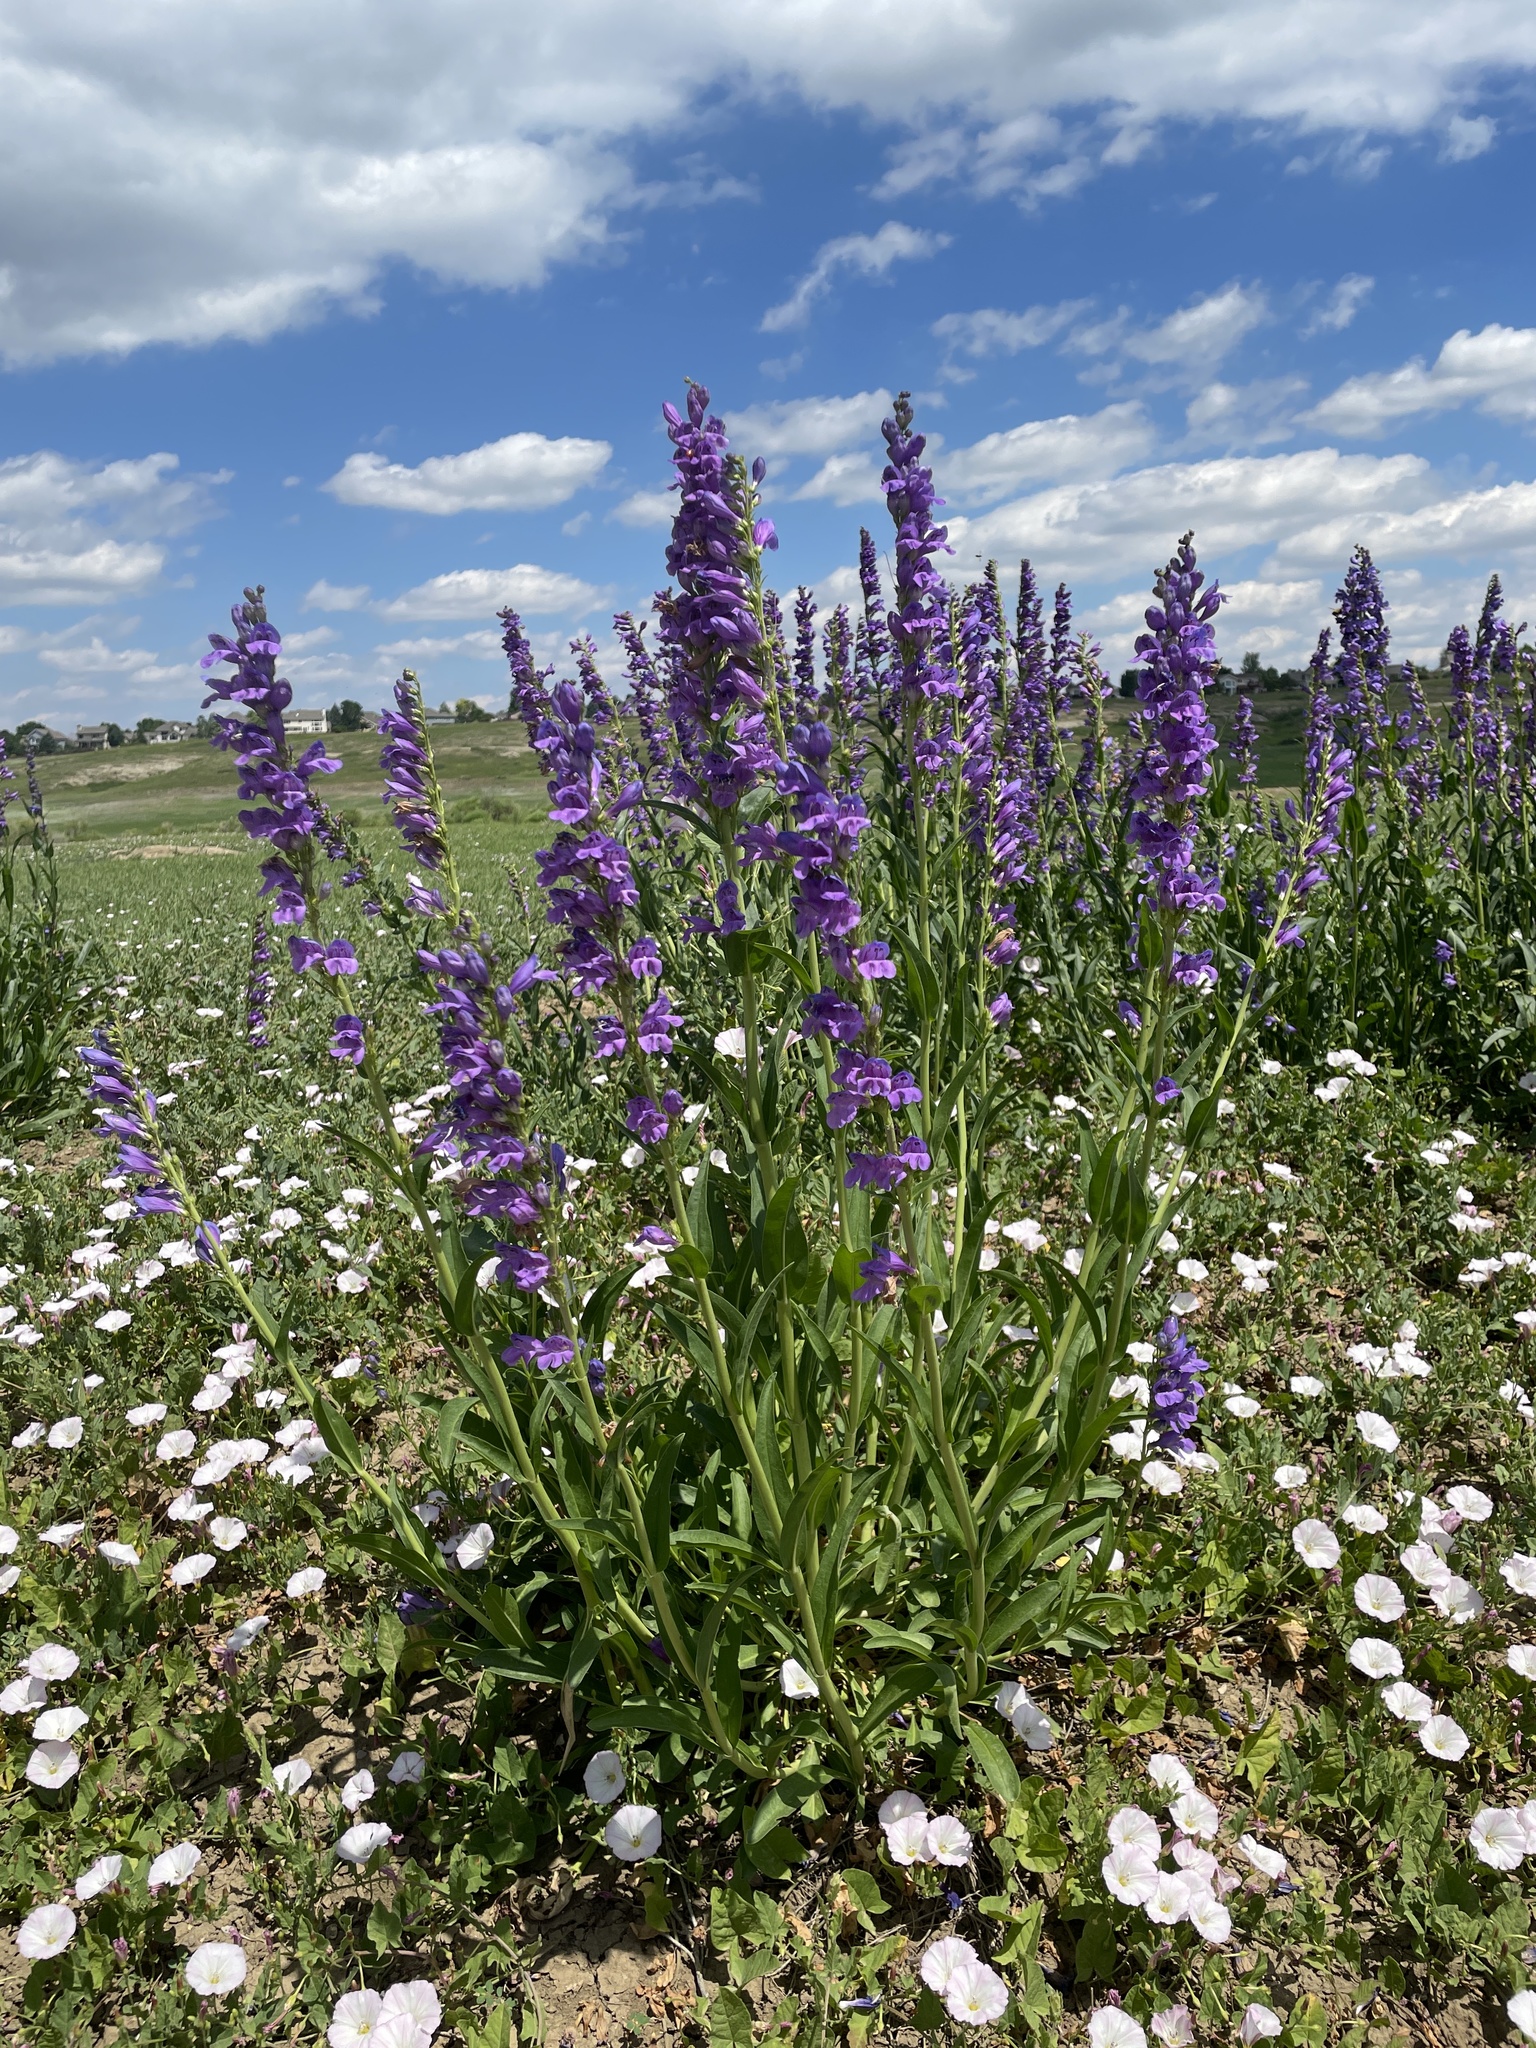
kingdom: Plantae
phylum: Tracheophyta
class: Magnoliopsida
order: Lamiales
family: Plantaginaceae
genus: Penstemon
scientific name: Penstemon strictus
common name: Rocky mountain penstemon
